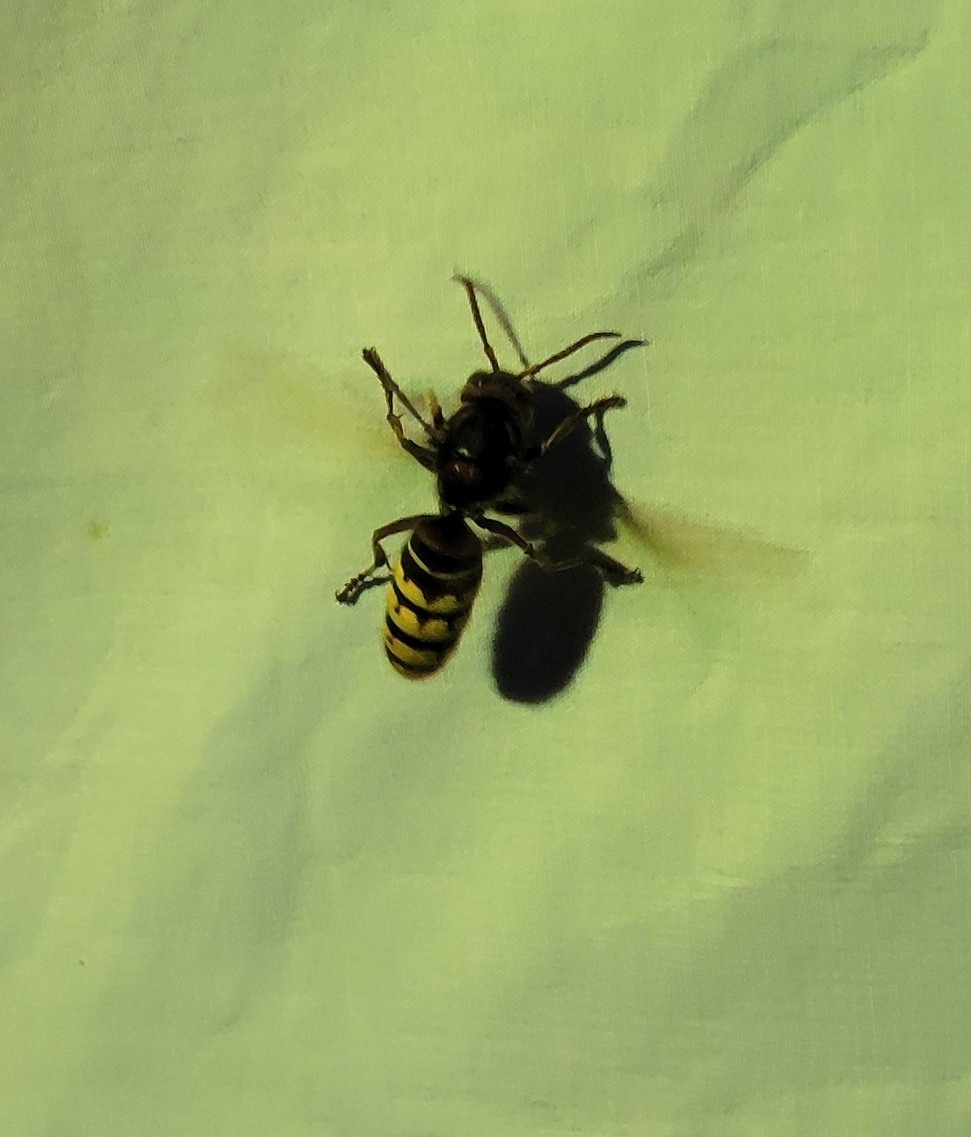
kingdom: Animalia
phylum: Arthropoda
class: Insecta
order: Hymenoptera
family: Vespidae
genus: Vespa
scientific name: Vespa crabro
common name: Hornet
